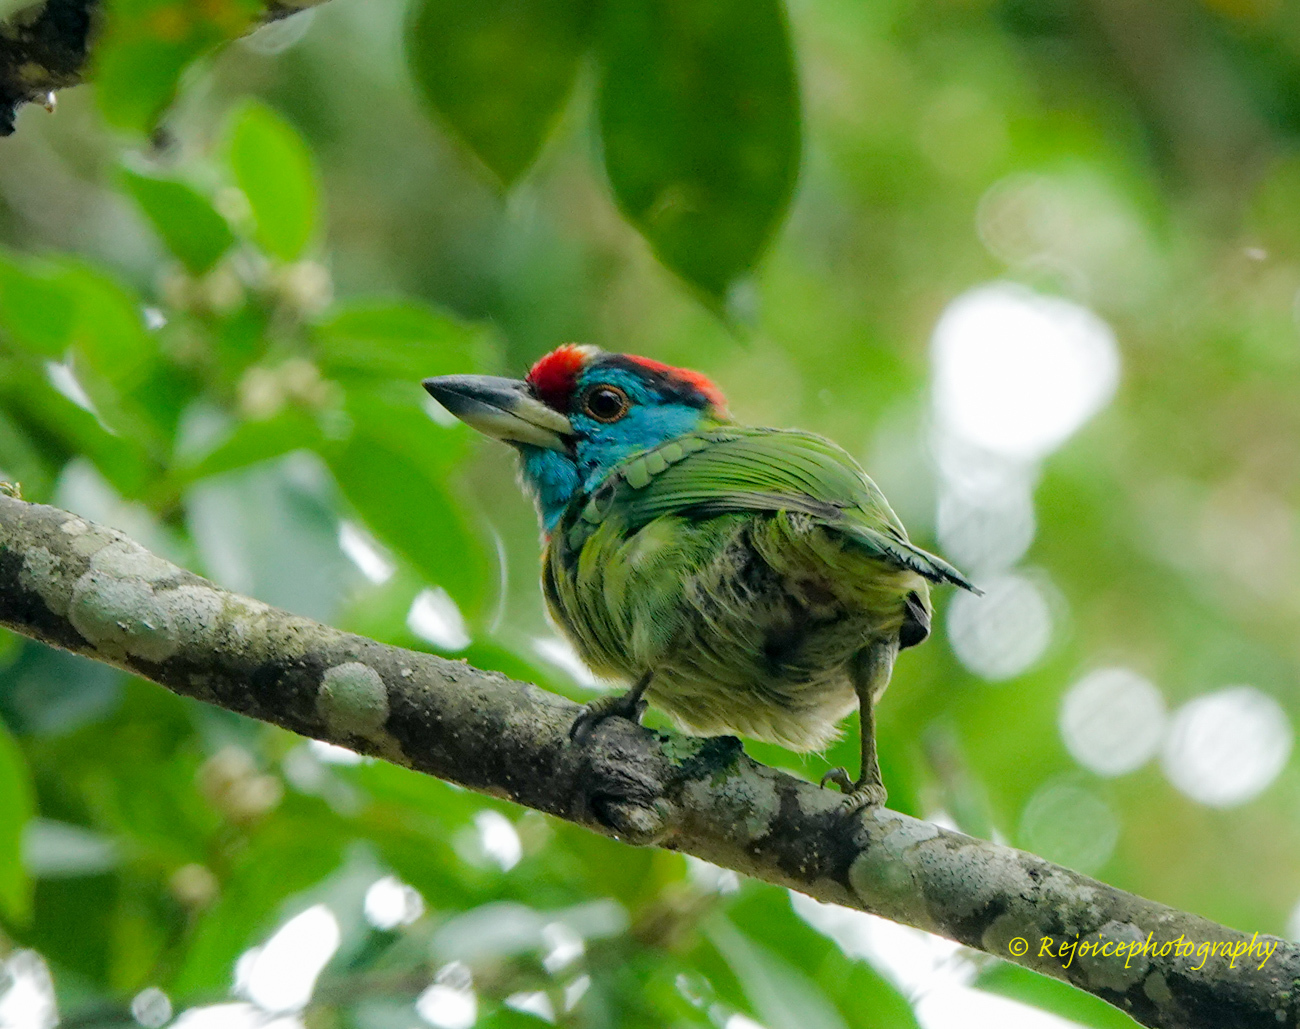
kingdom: Animalia
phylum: Chordata
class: Aves
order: Piciformes
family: Megalaimidae
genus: Psilopogon
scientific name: Psilopogon asiaticus
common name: Blue-throated barbet
